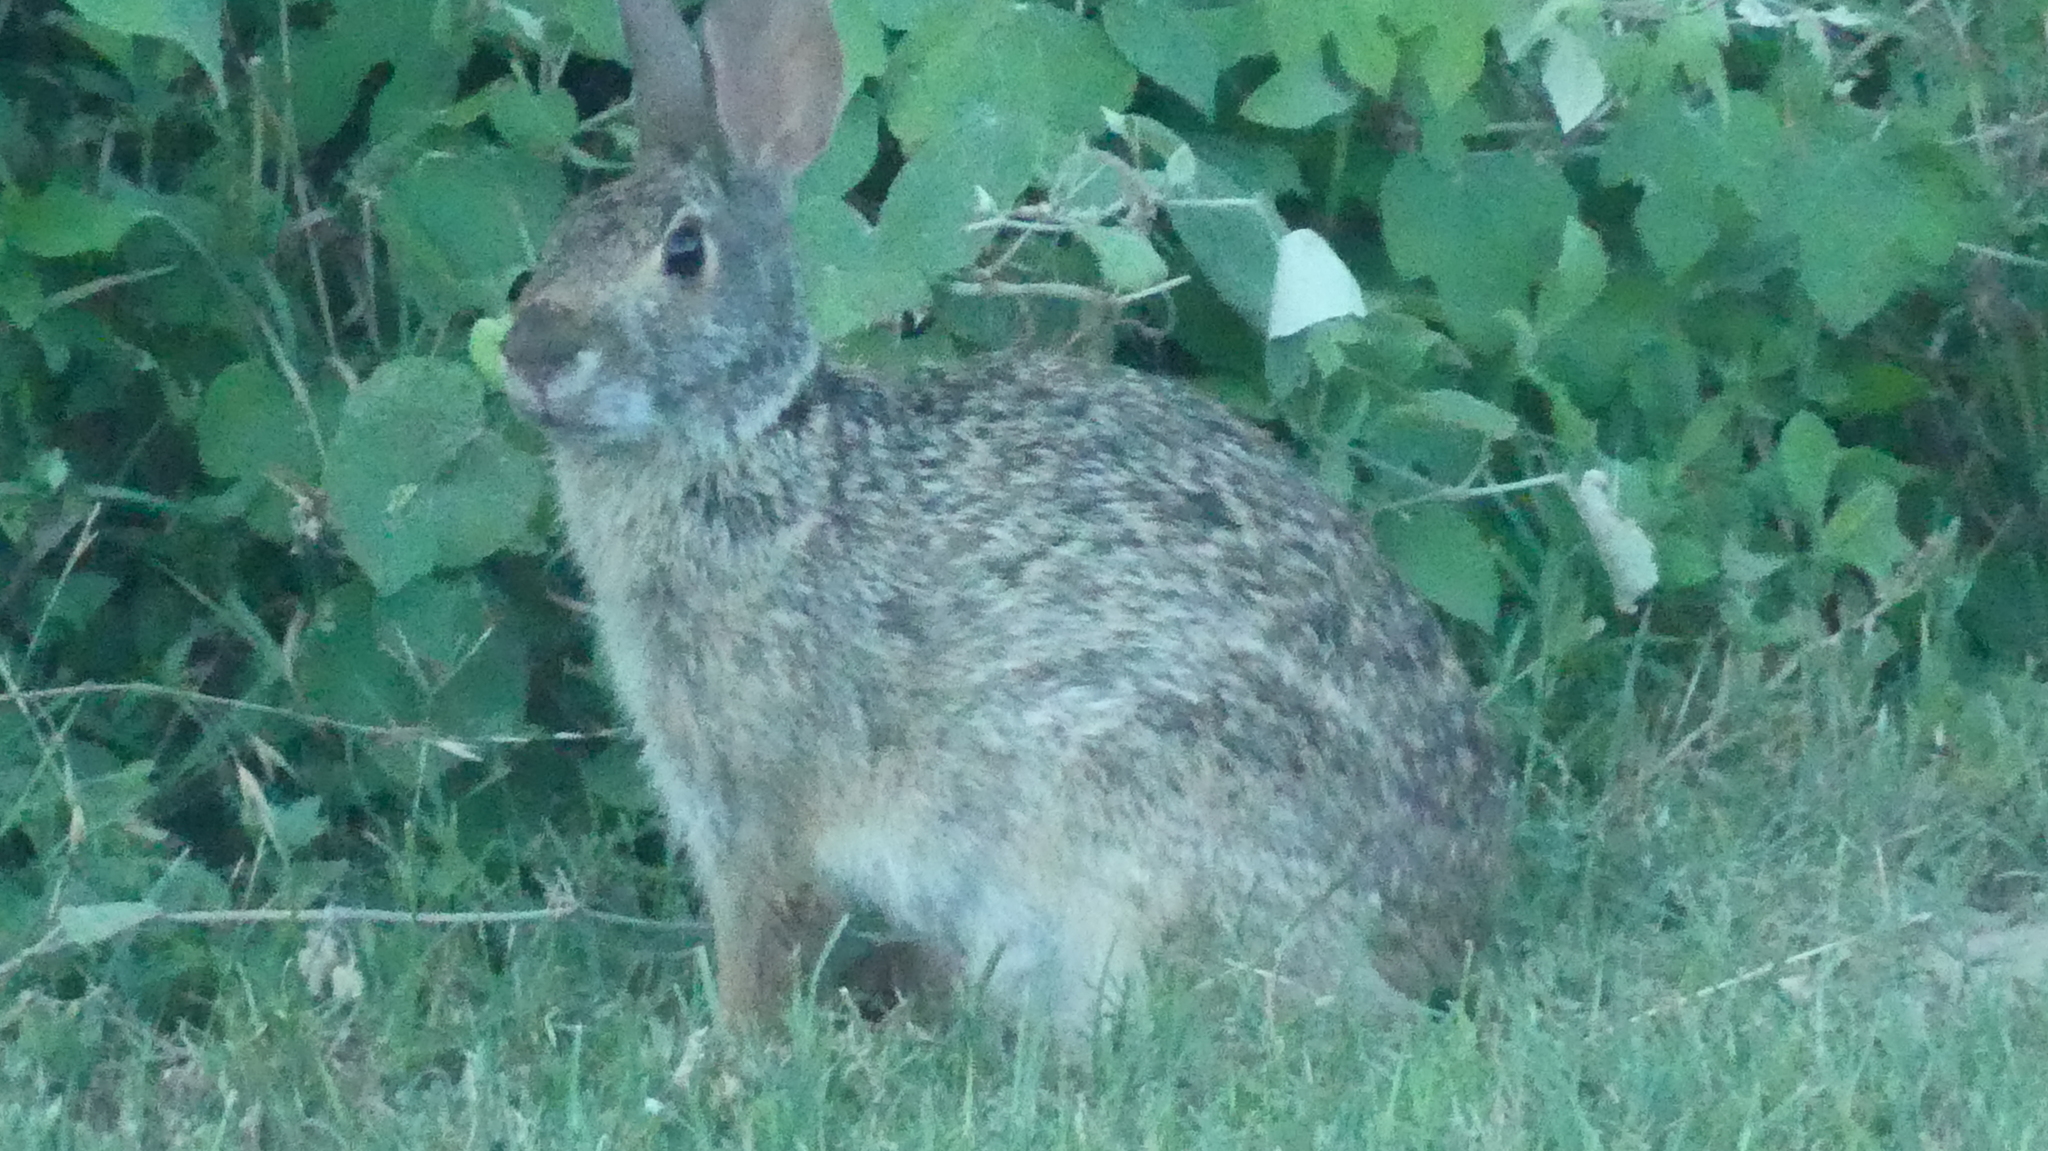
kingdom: Animalia
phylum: Chordata
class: Mammalia
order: Lagomorpha
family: Leporidae
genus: Sylvilagus
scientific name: Sylvilagus floridanus
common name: Eastern cottontail
